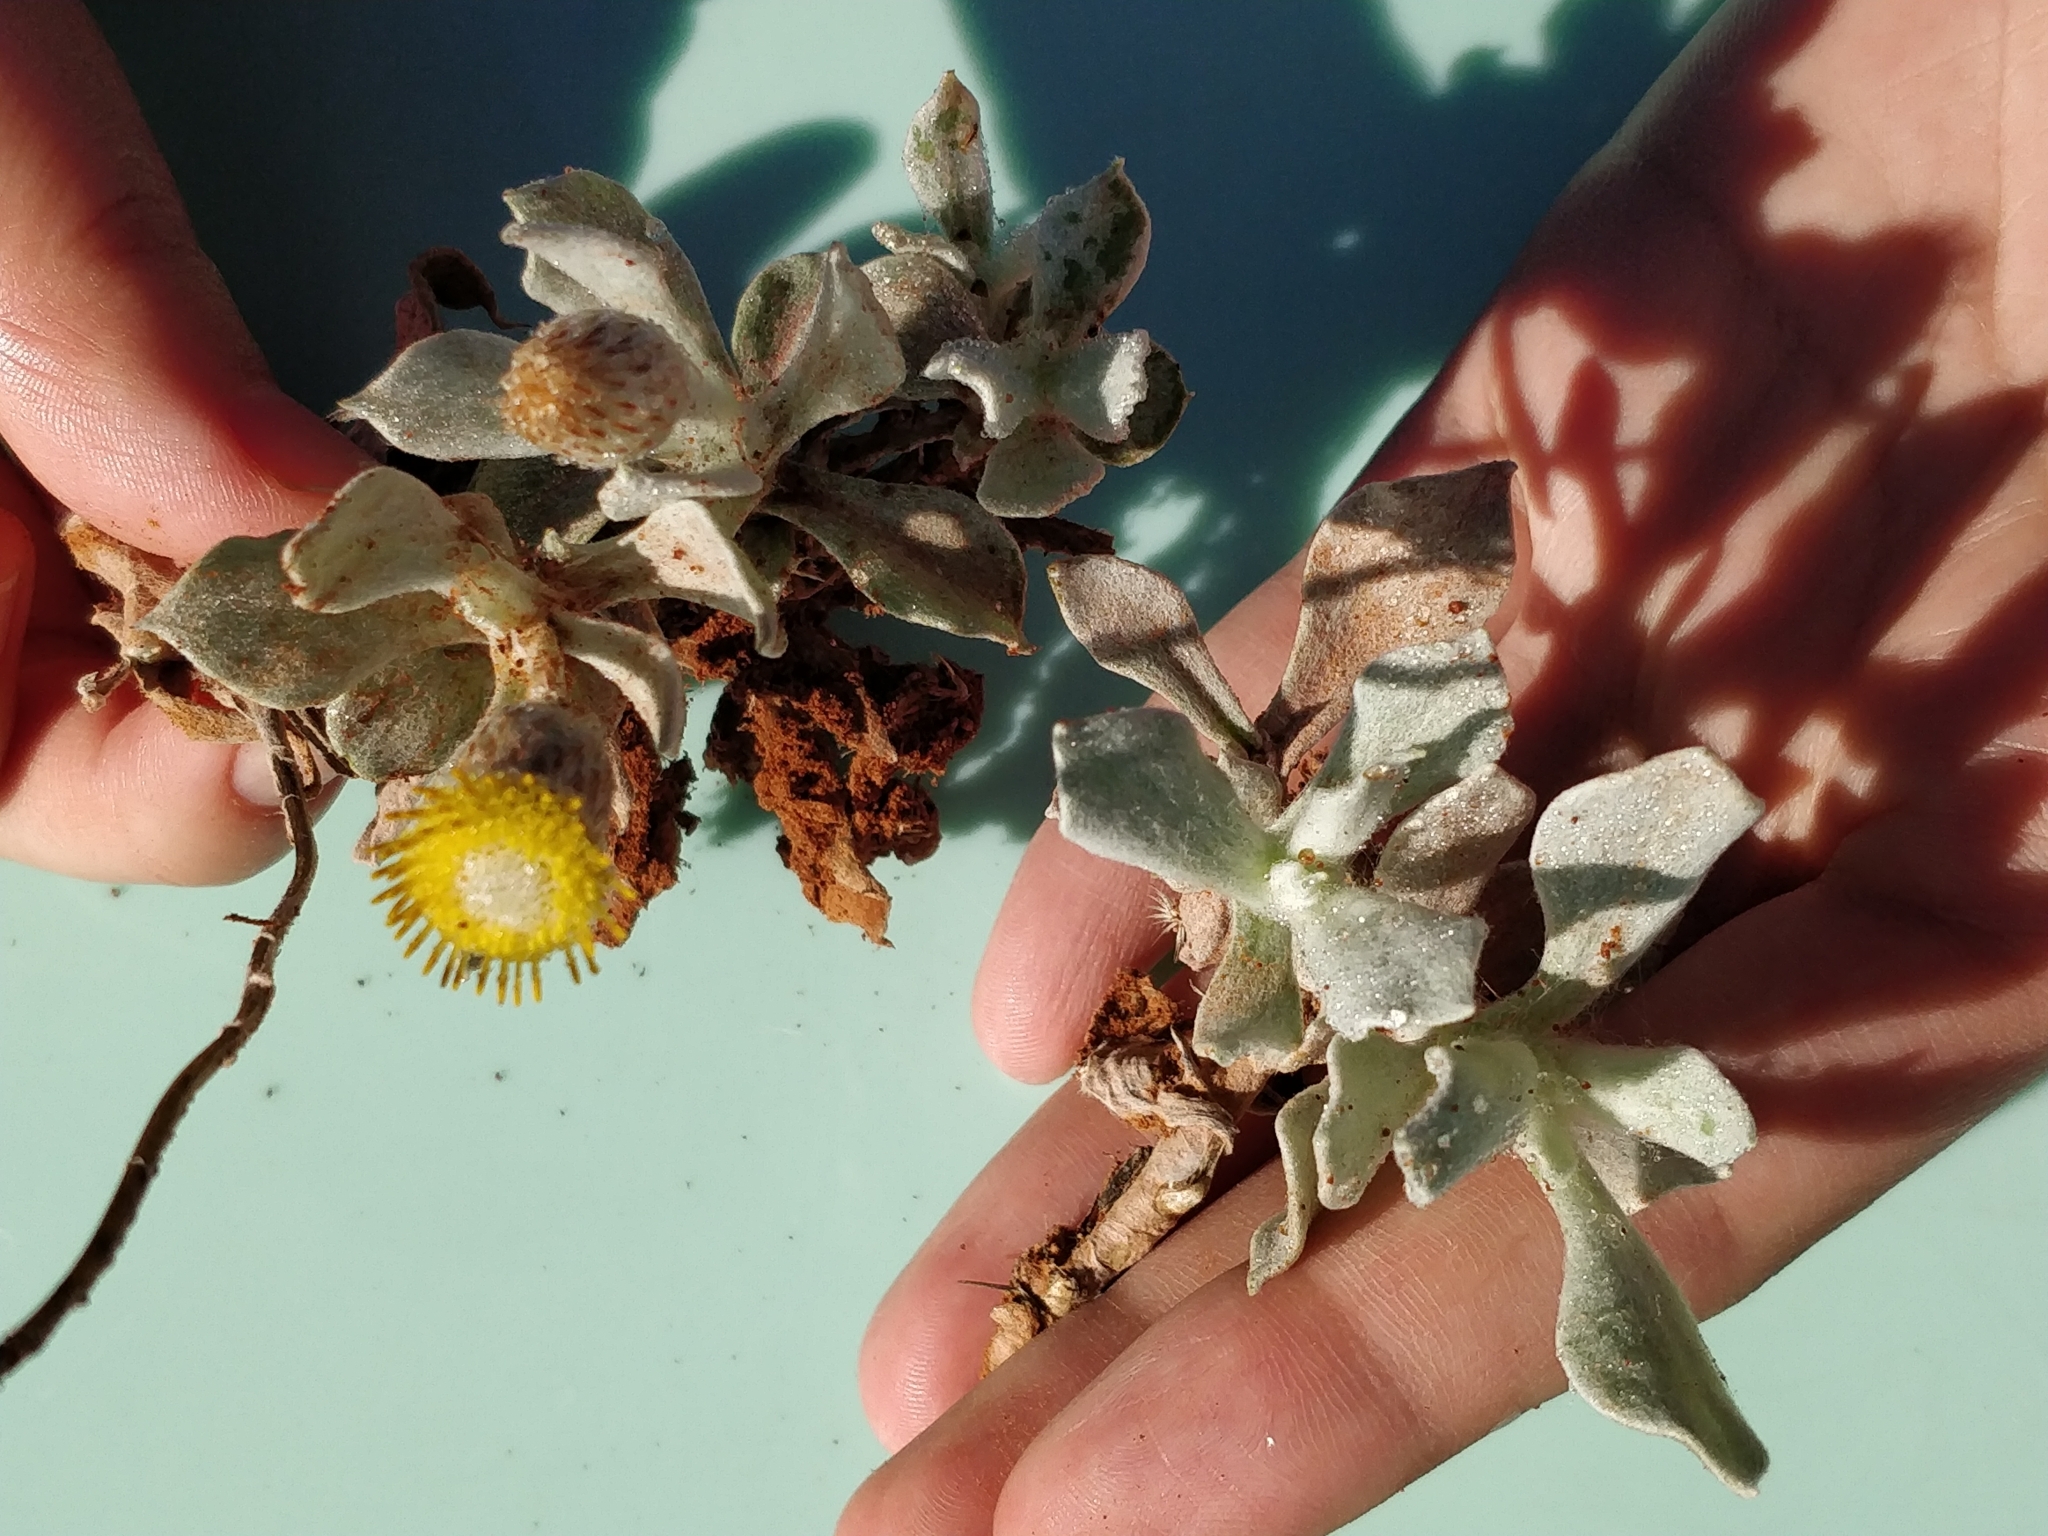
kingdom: Plantae
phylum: Tracheophyta
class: Magnoliopsida
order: Asterales
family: Asteraceae
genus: Anemocarpa
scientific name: Anemocarpa podolepidium
